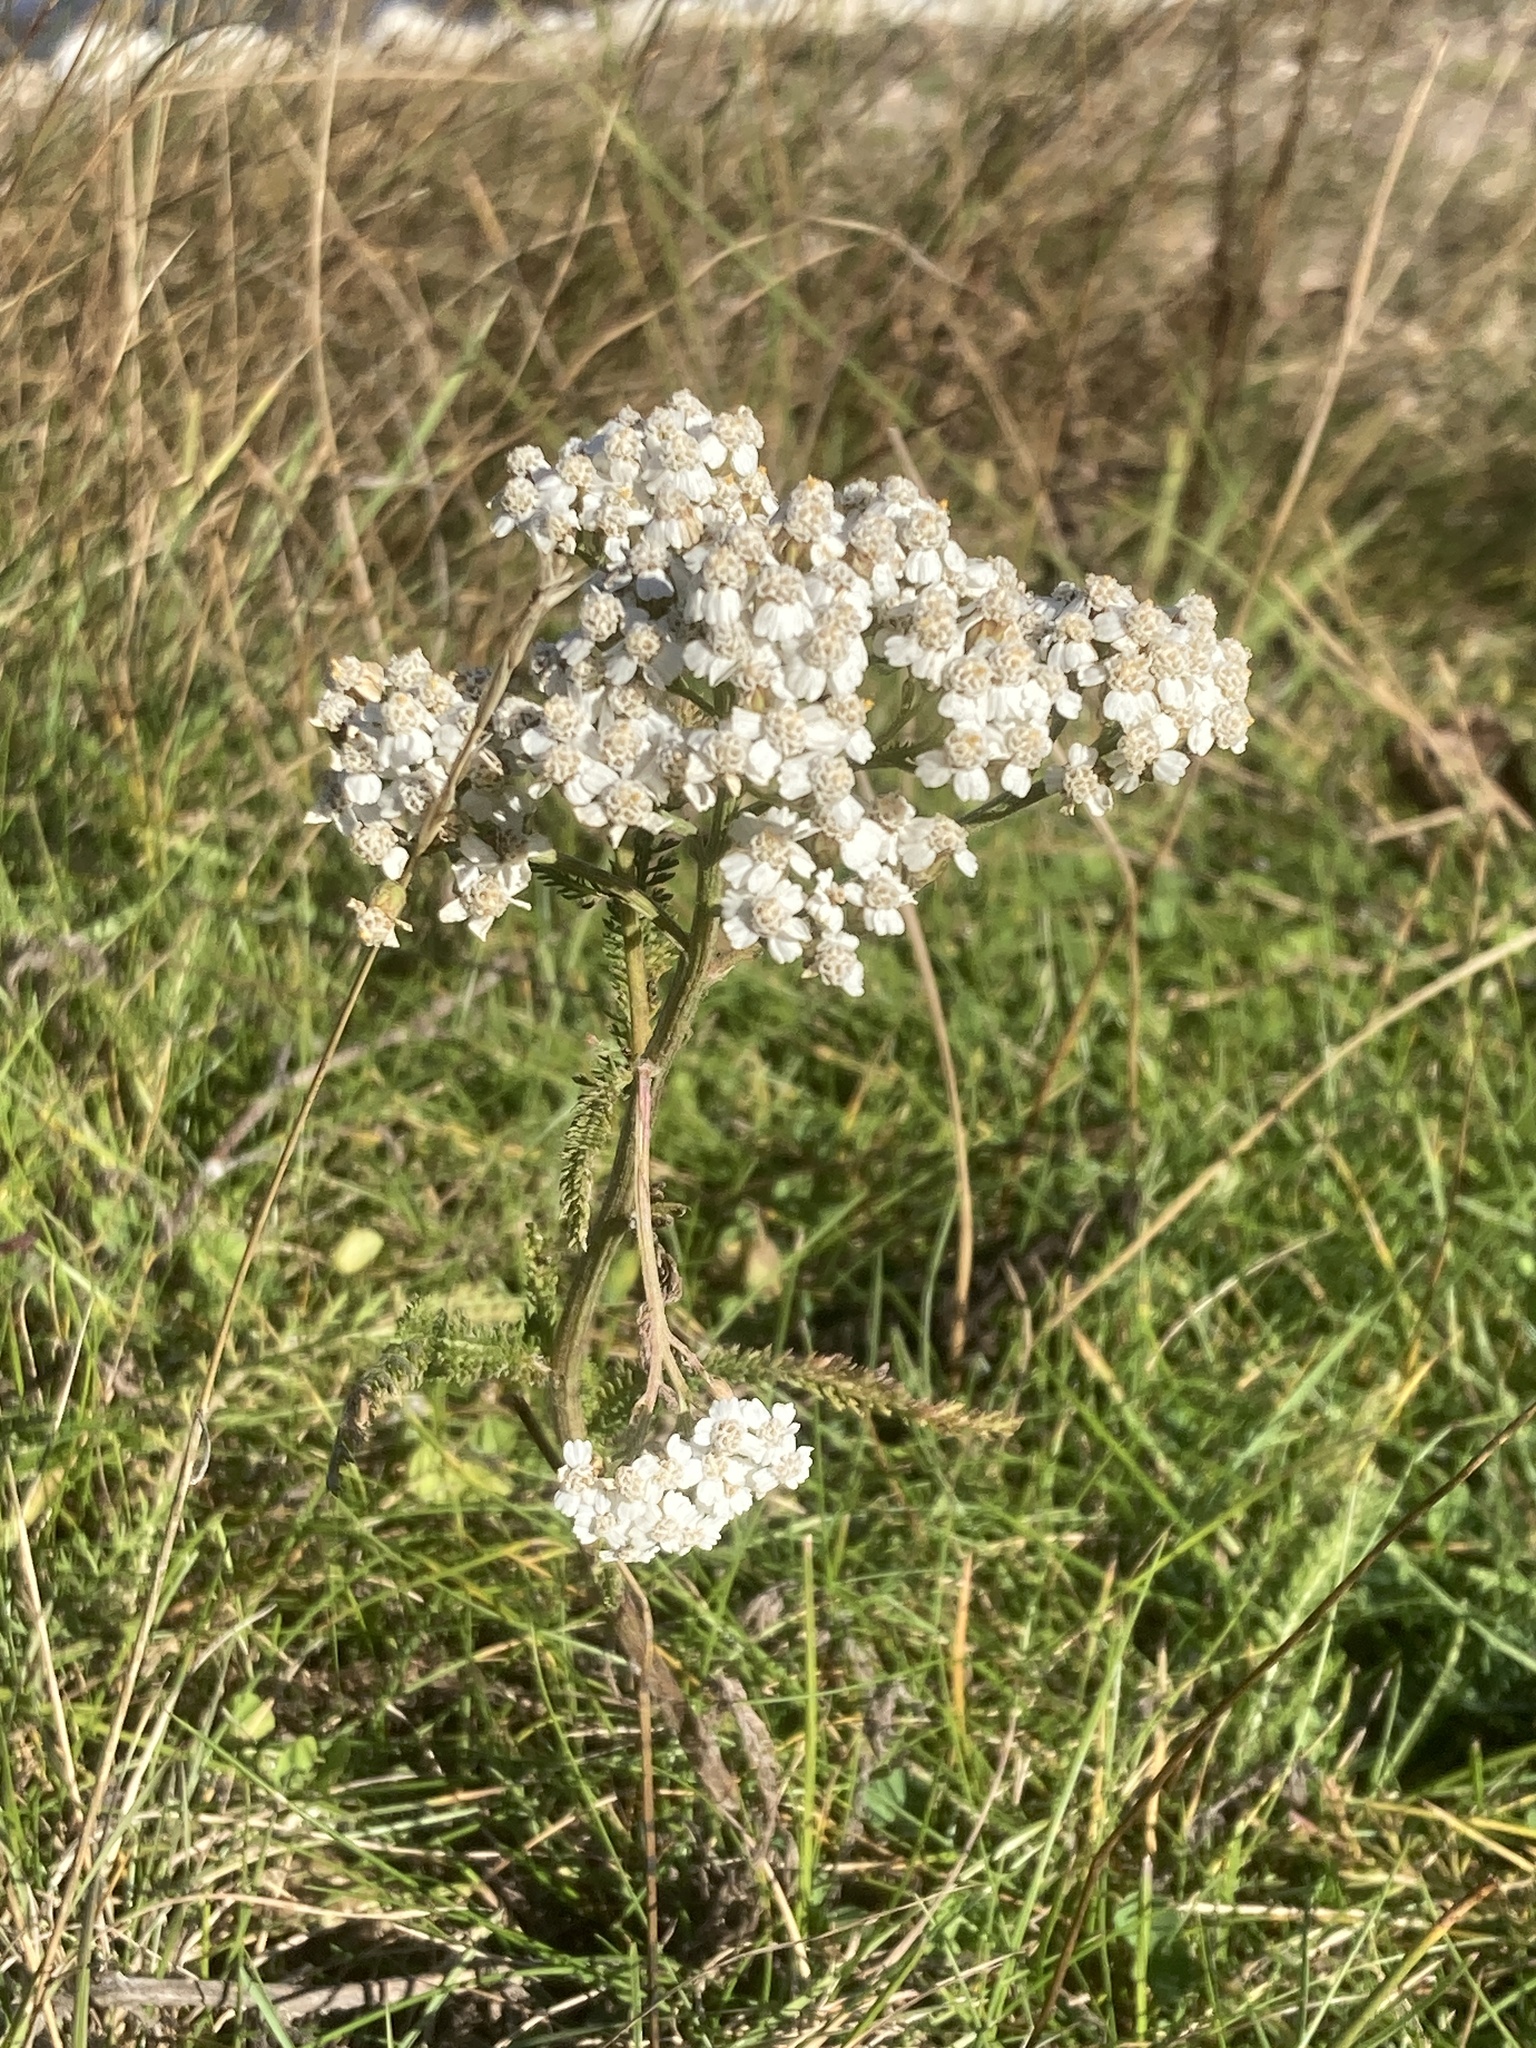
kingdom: Plantae
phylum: Tracheophyta
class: Magnoliopsida
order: Asterales
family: Asteraceae
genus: Achillea
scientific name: Achillea millefolium
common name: Yarrow
